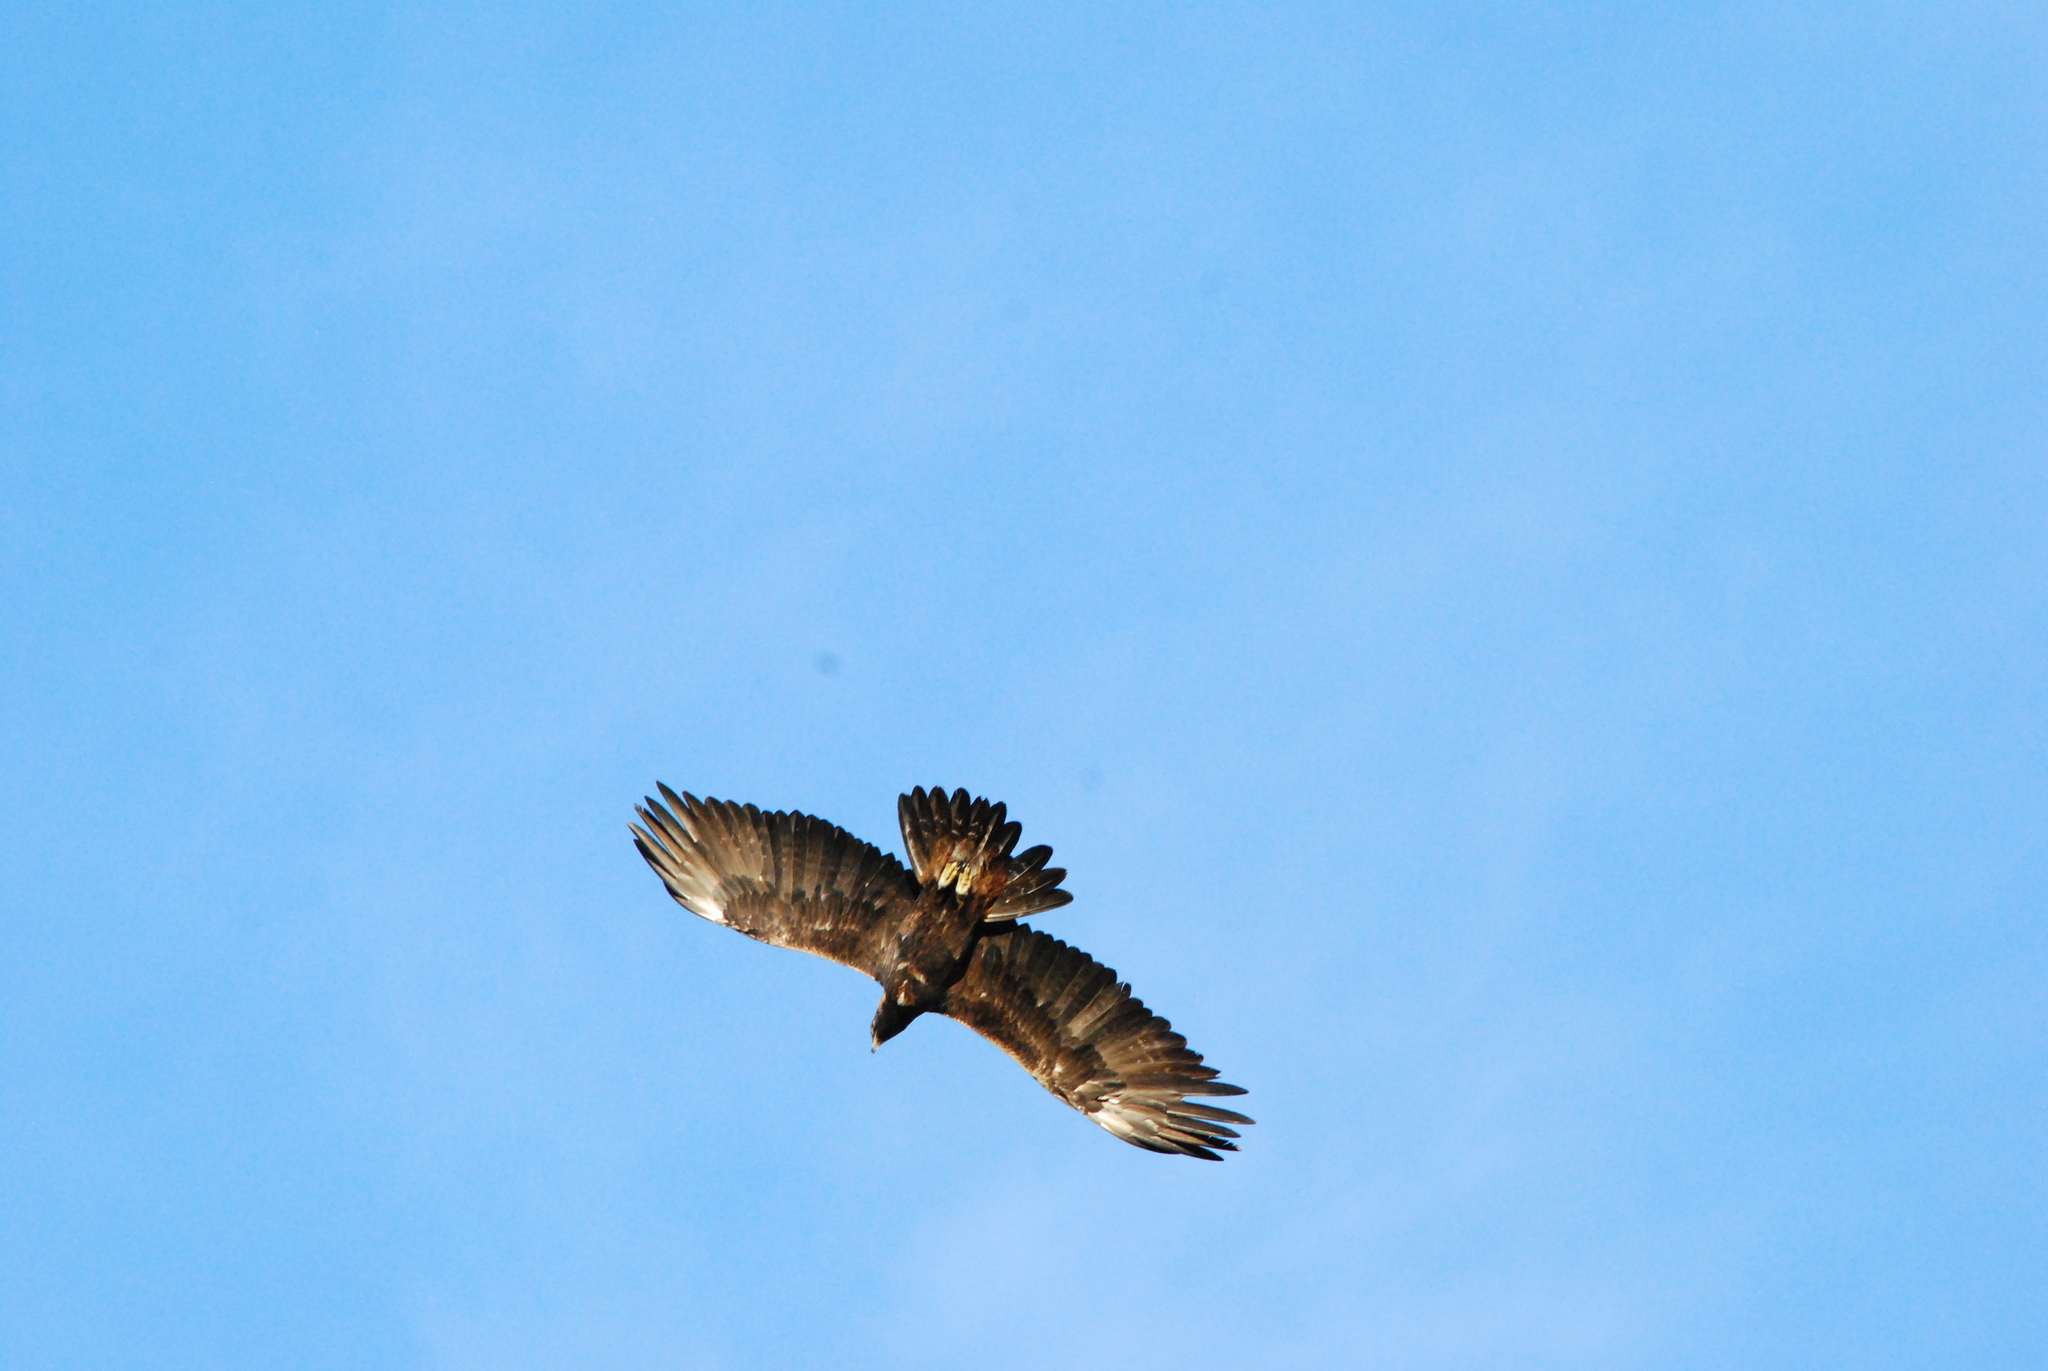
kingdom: Animalia
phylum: Chordata
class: Aves
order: Accipitriformes
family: Accipitridae
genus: Aquila
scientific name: Aquila chrysaetos
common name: Golden eagle
